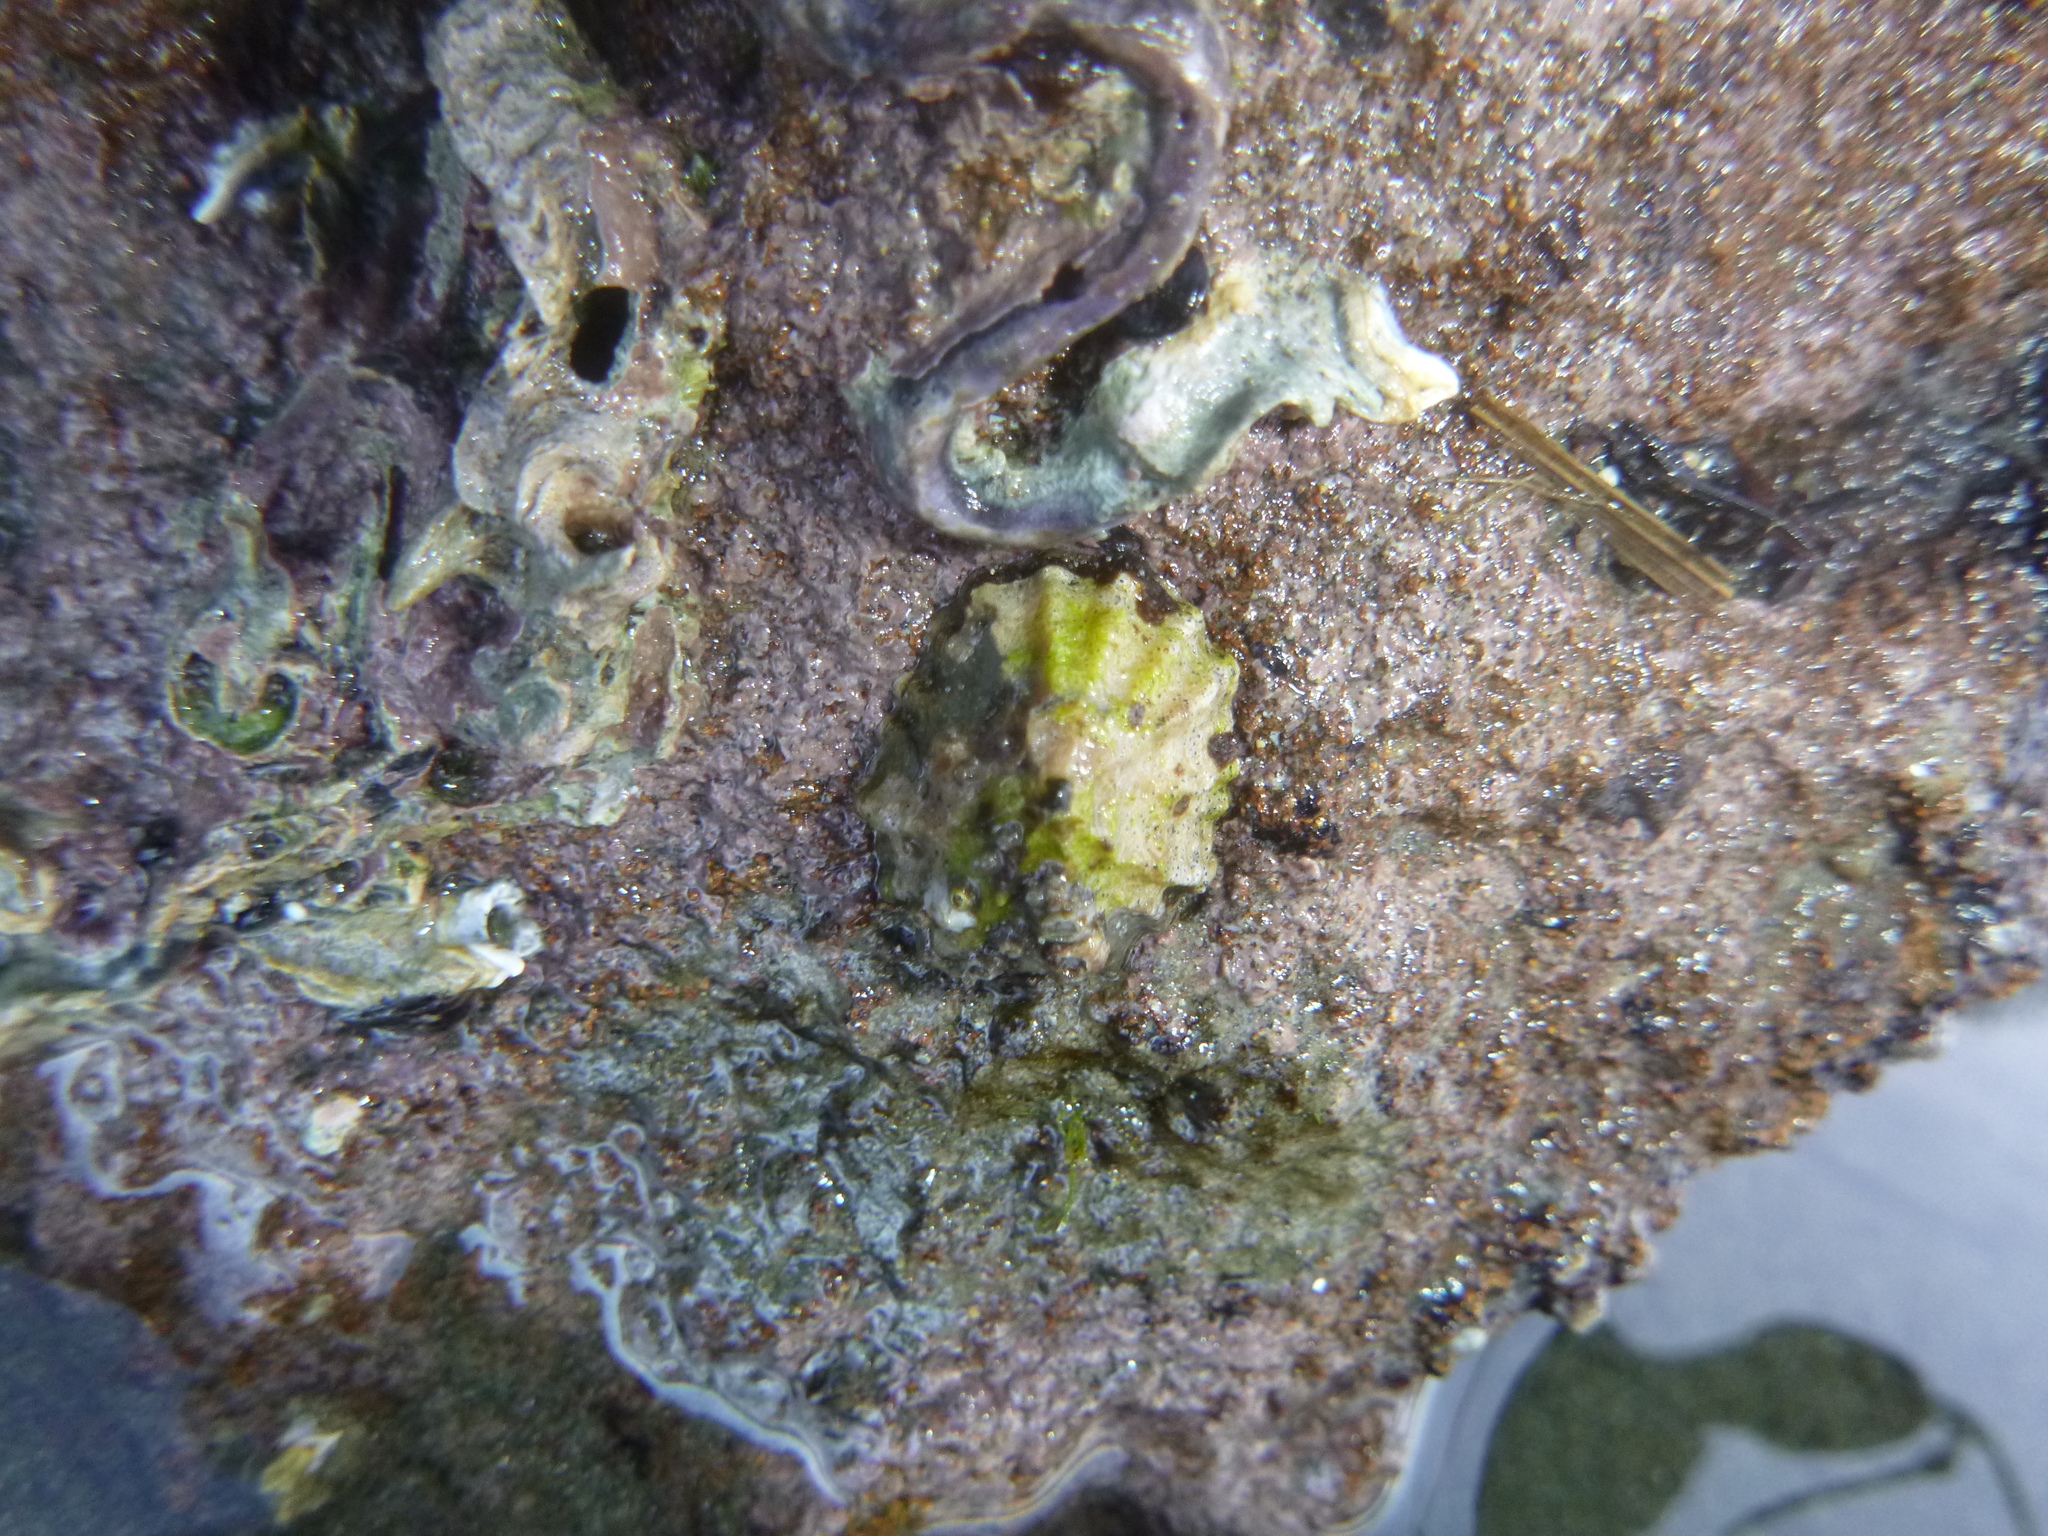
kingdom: Animalia
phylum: Mollusca
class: Gastropoda
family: Lottiidae
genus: Patelloida
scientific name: Patelloida corticata
